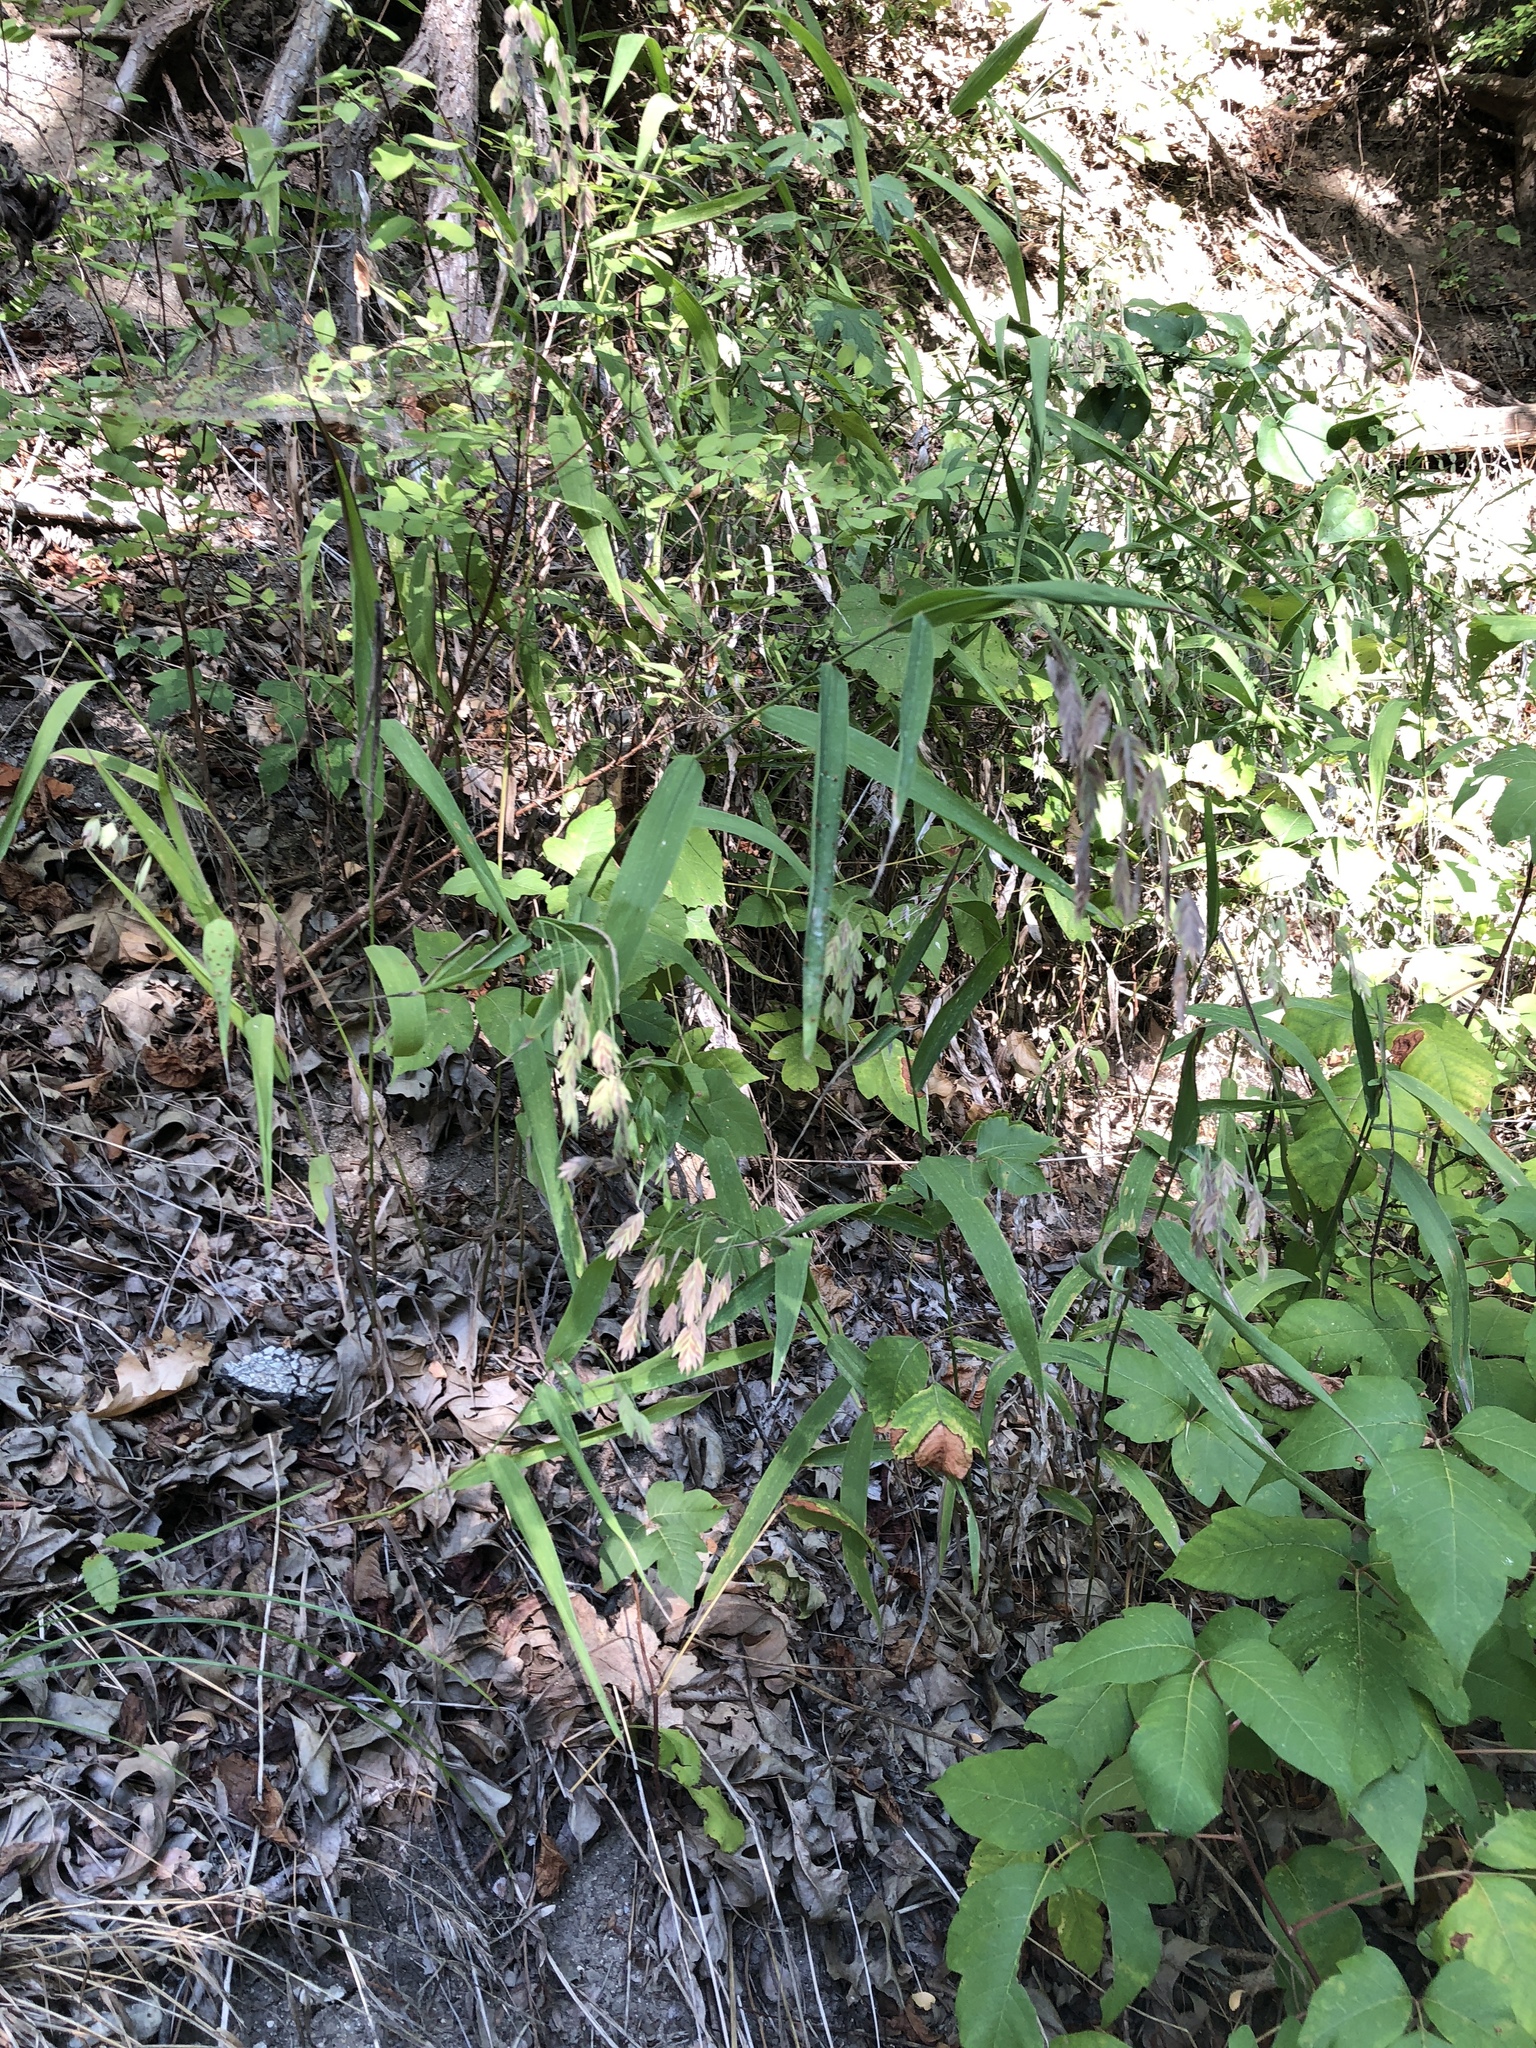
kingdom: Plantae
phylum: Tracheophyta
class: Liliopsida
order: Poales
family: Poaceae
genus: Chasmanthium
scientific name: Chasmanthium latifolium
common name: Broad-leaved chasmanthium
